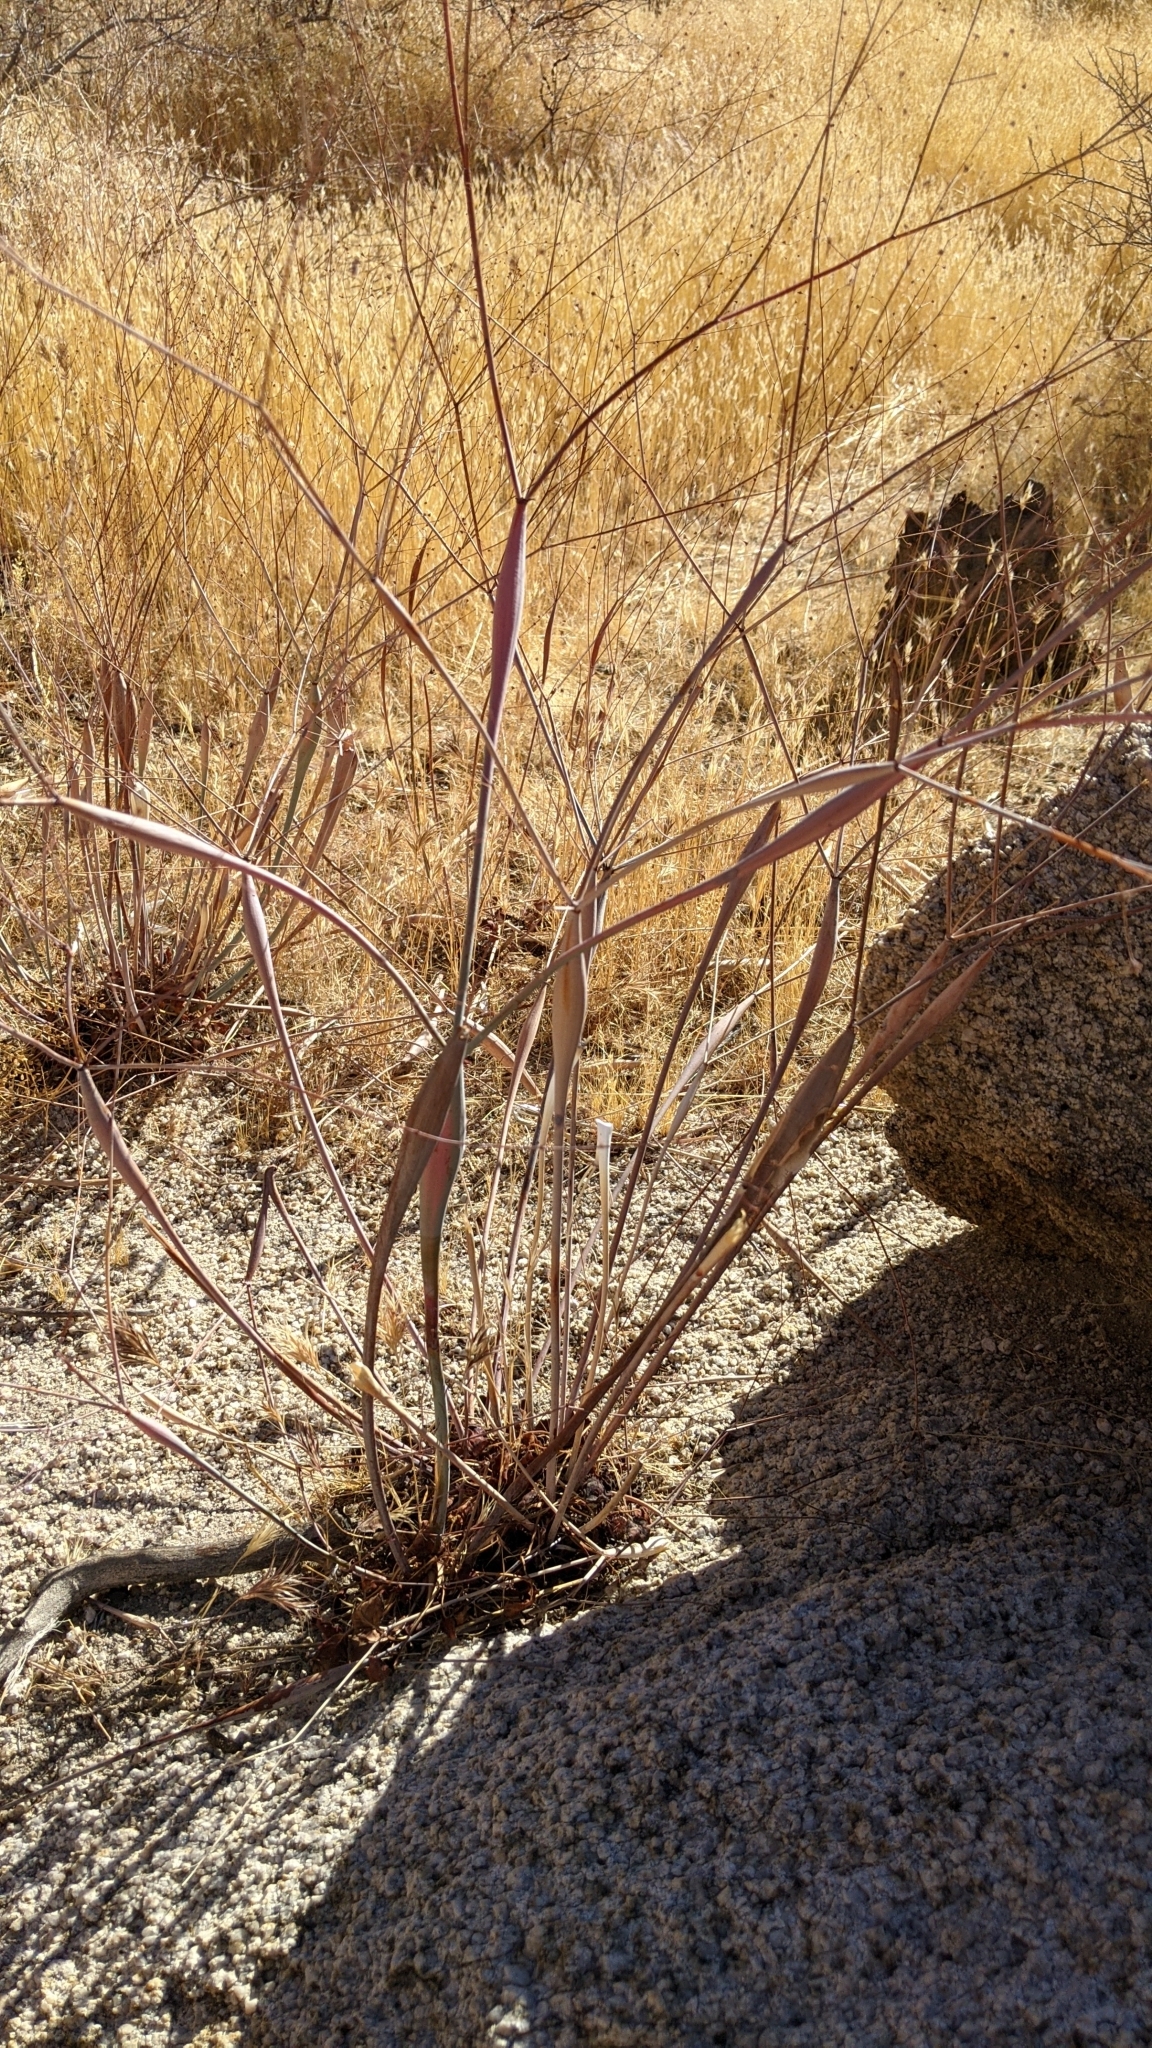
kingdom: Plantae
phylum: Tracheophyta
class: Magnoliopsida
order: Caryophyllales
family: Polygonaceae
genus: Eriogonum
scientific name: Eriogonum inflatum
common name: Desert trumpet
